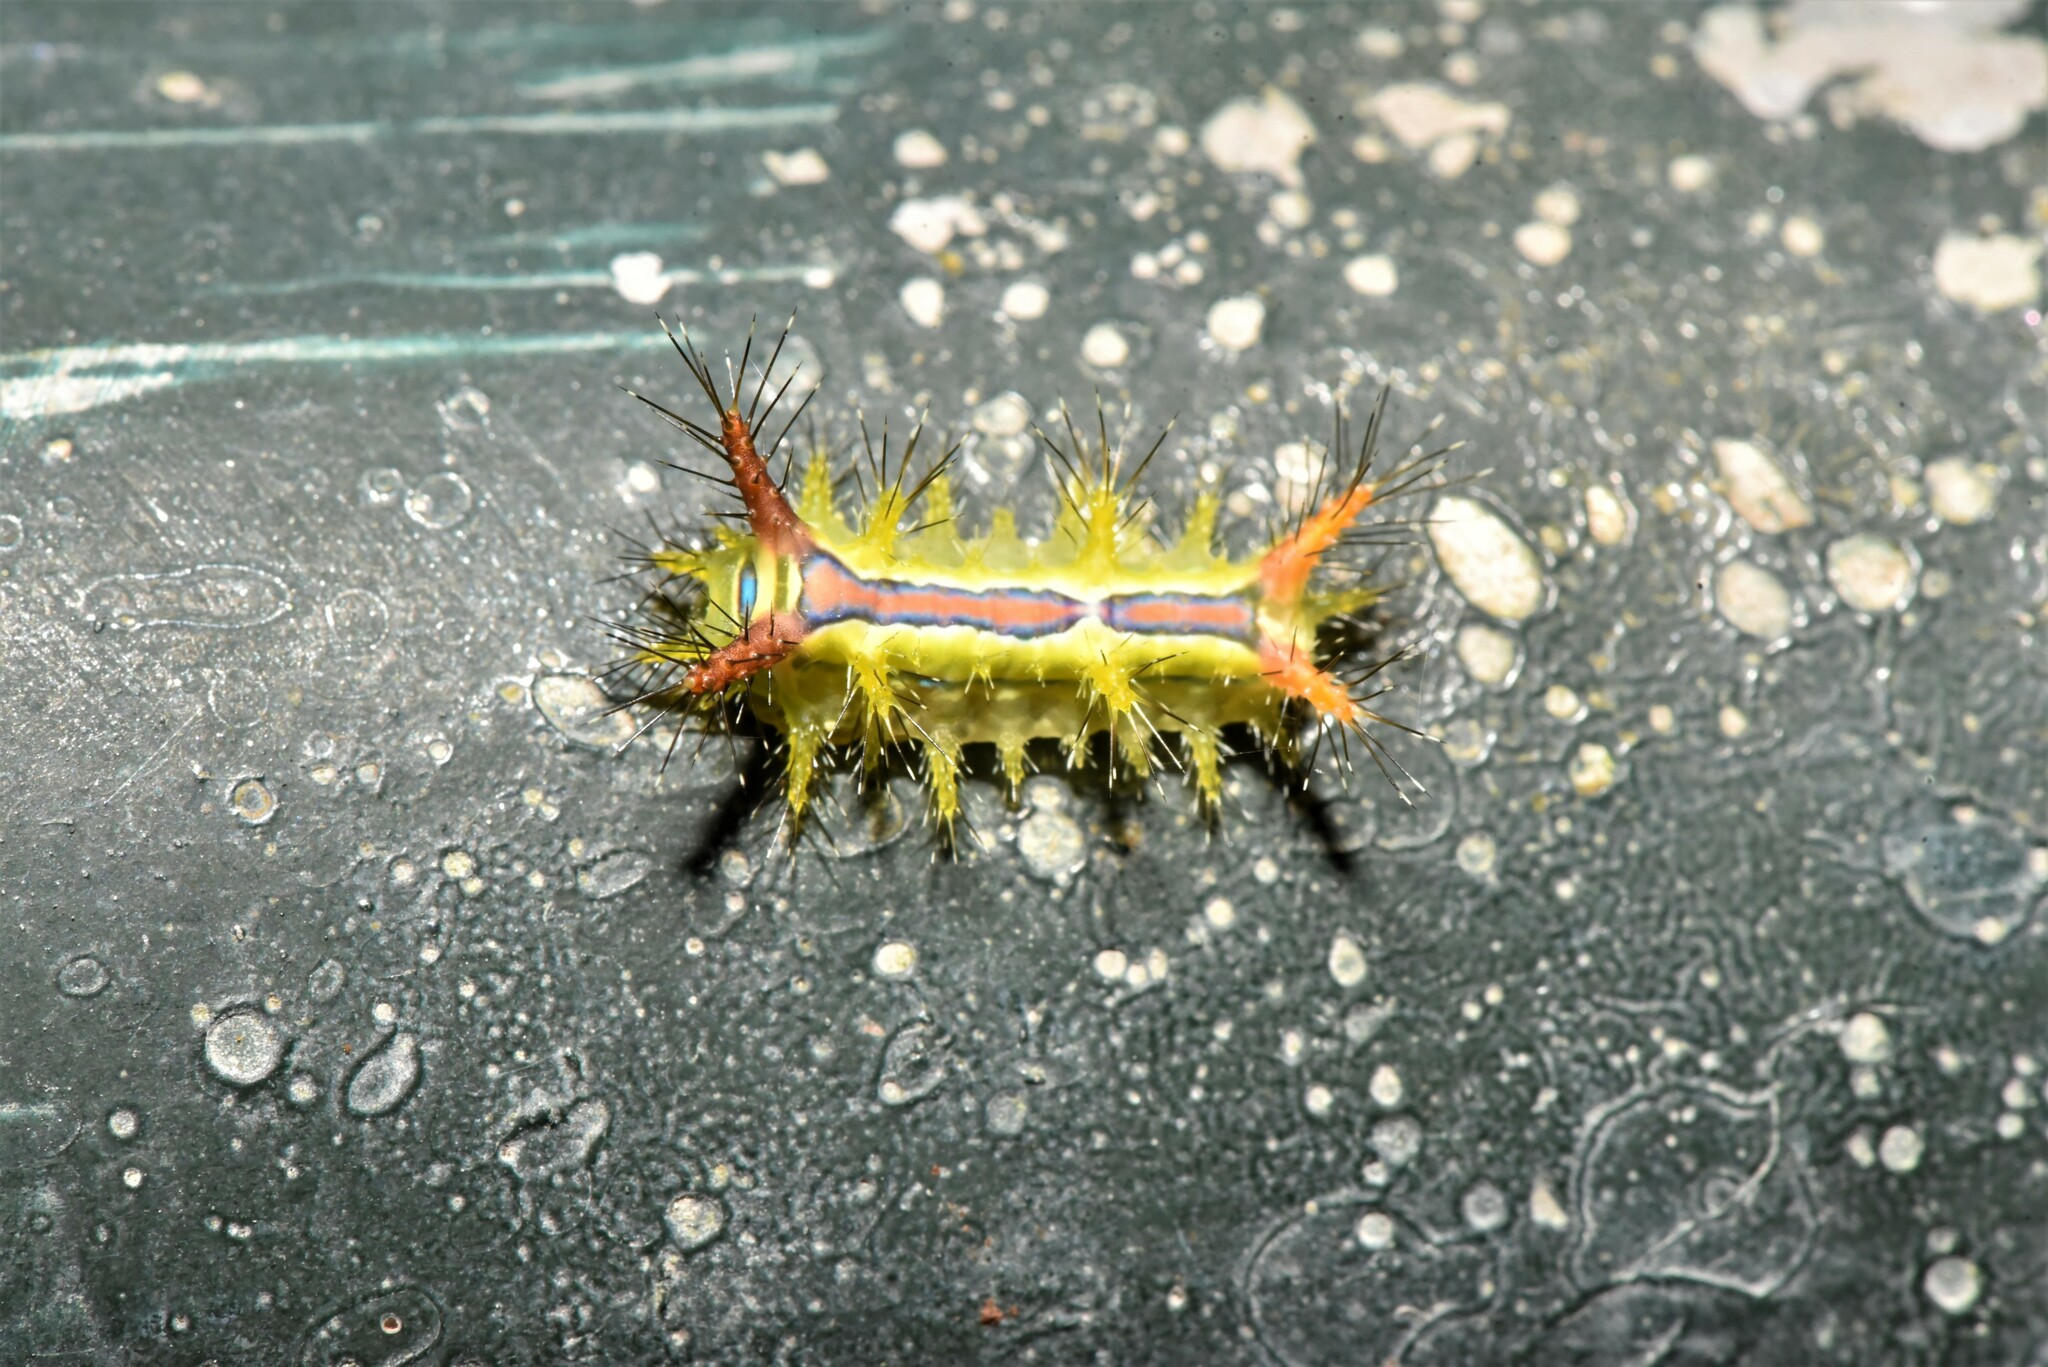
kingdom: Animalia
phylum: Arthropoda
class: Insecta
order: Lepidoptera
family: Limacodidae
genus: Birthamula
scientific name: Birthamula rufa
